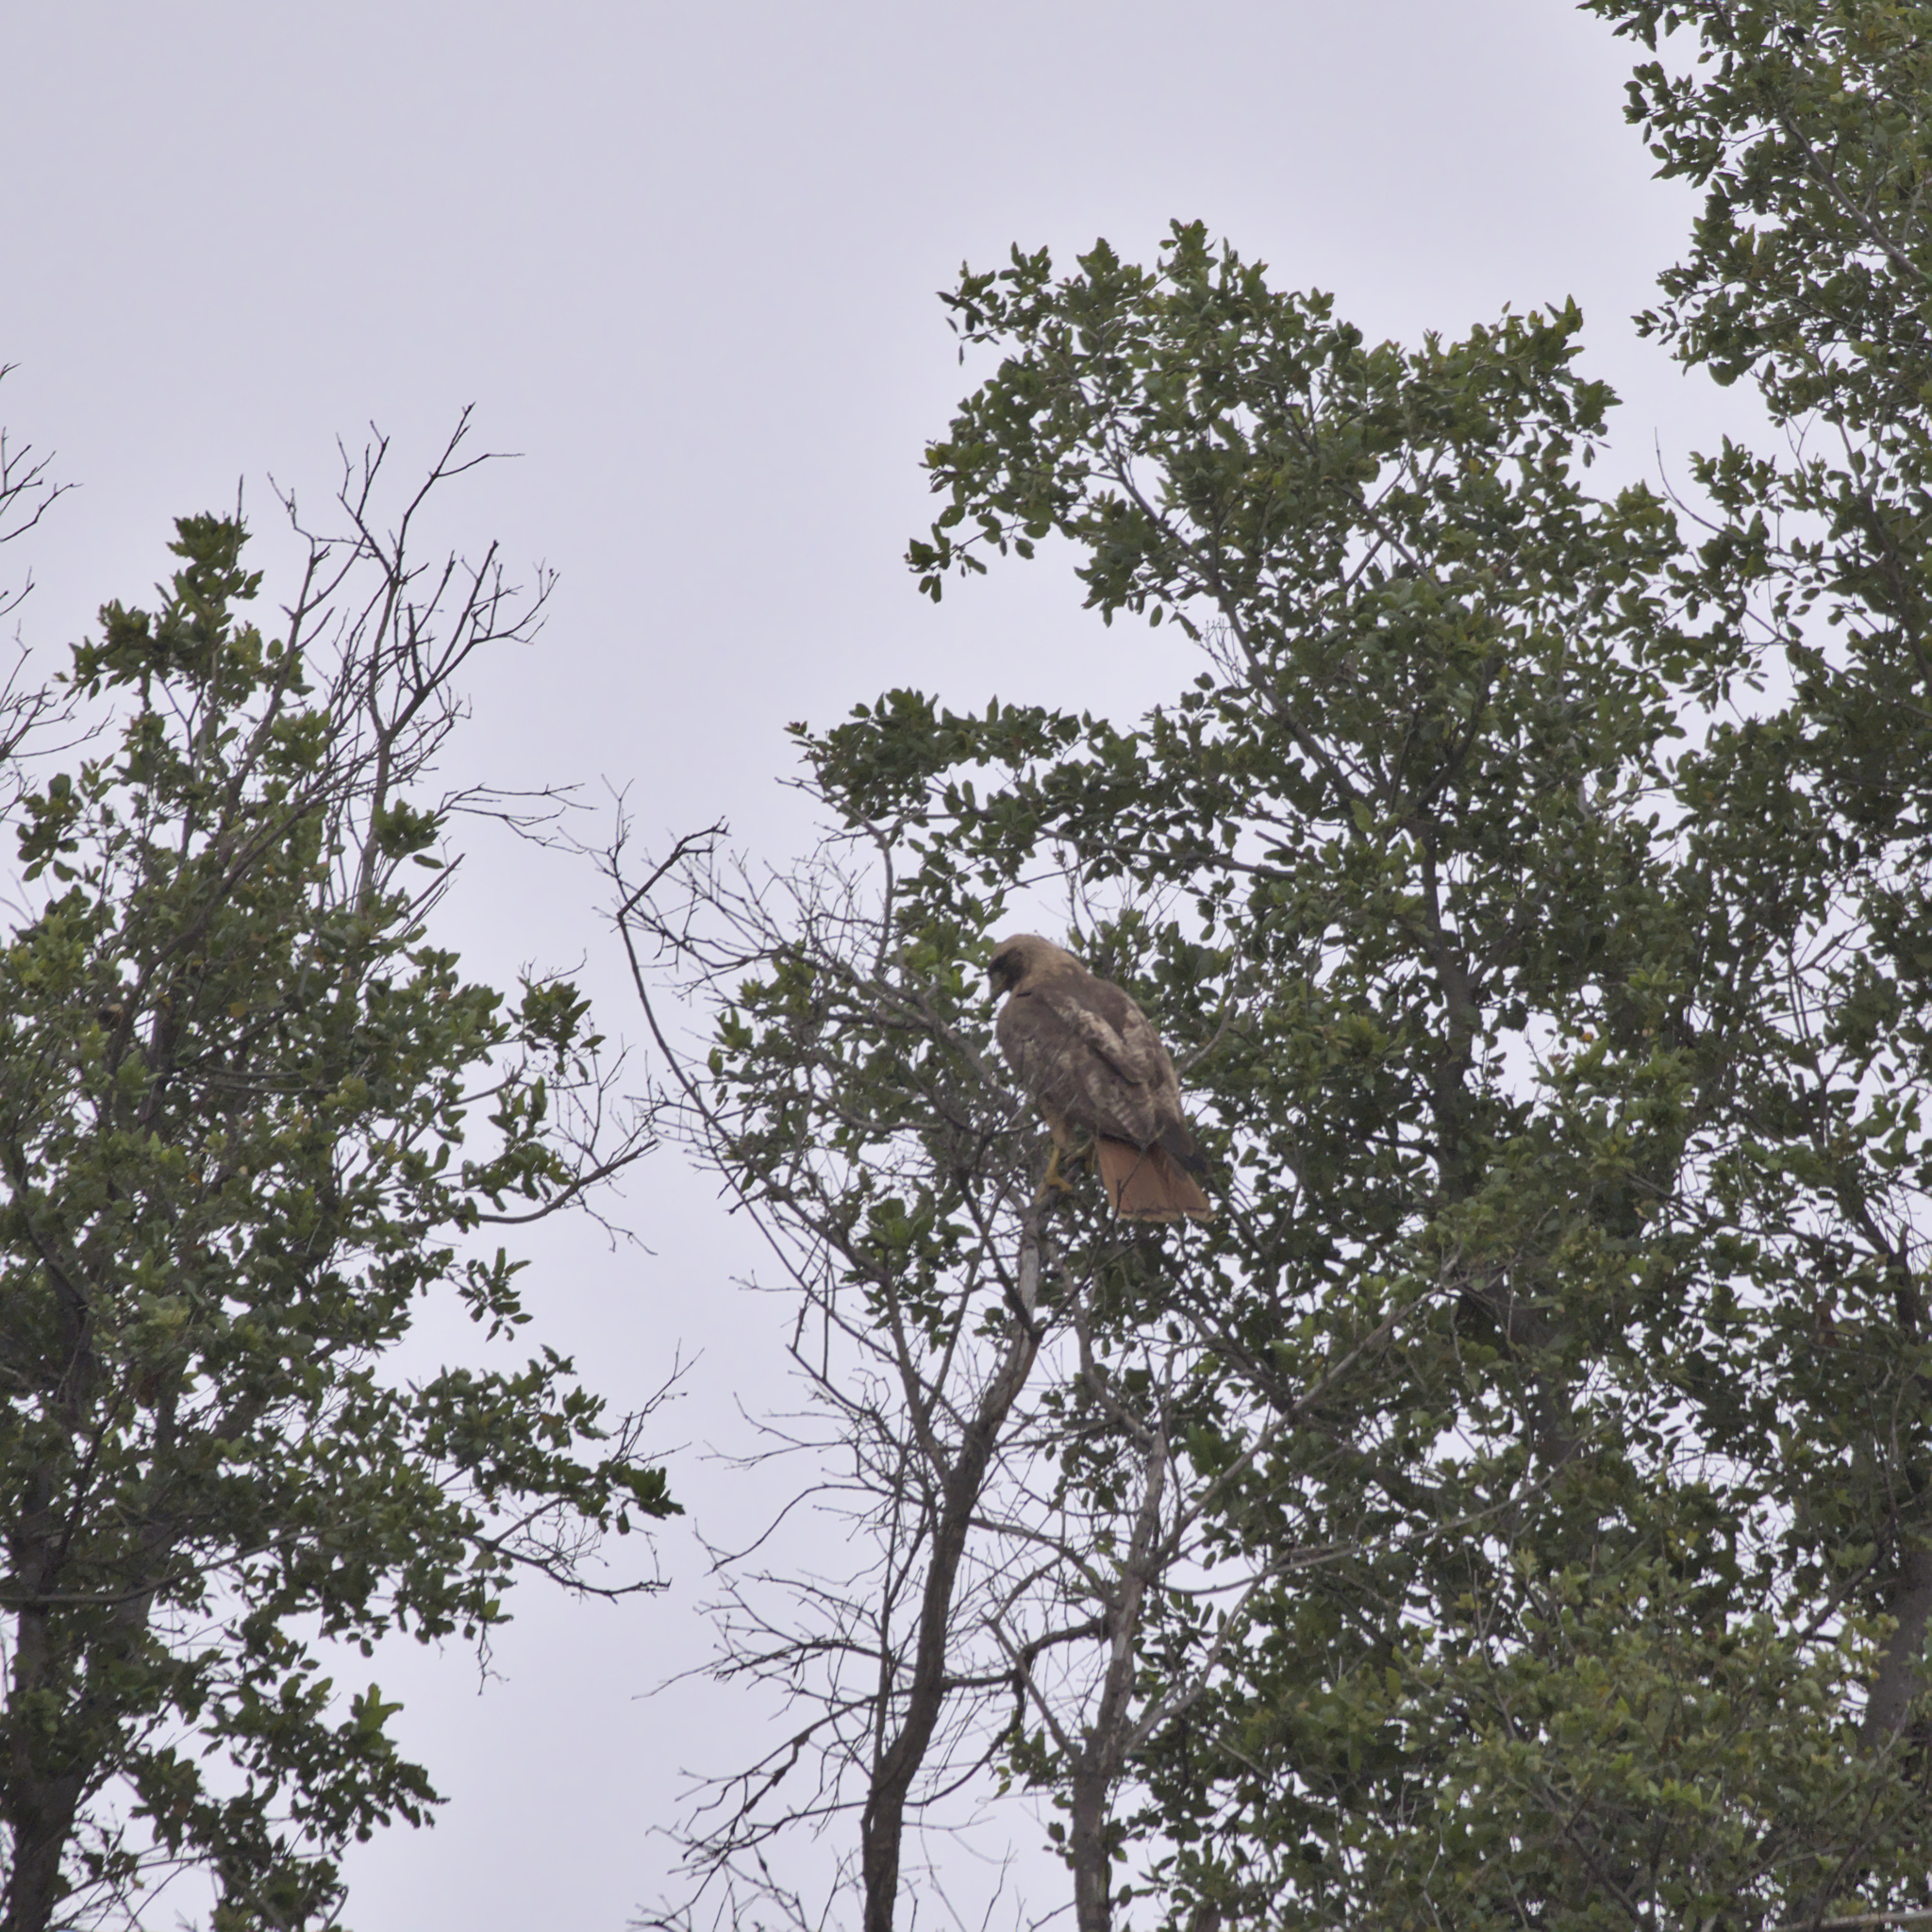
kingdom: Animalia
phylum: Chordata
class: Aves
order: Accipitriformes
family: Accipitridae
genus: Buteo
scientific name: Buteo jamaicensis
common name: Red-tailed hawk
